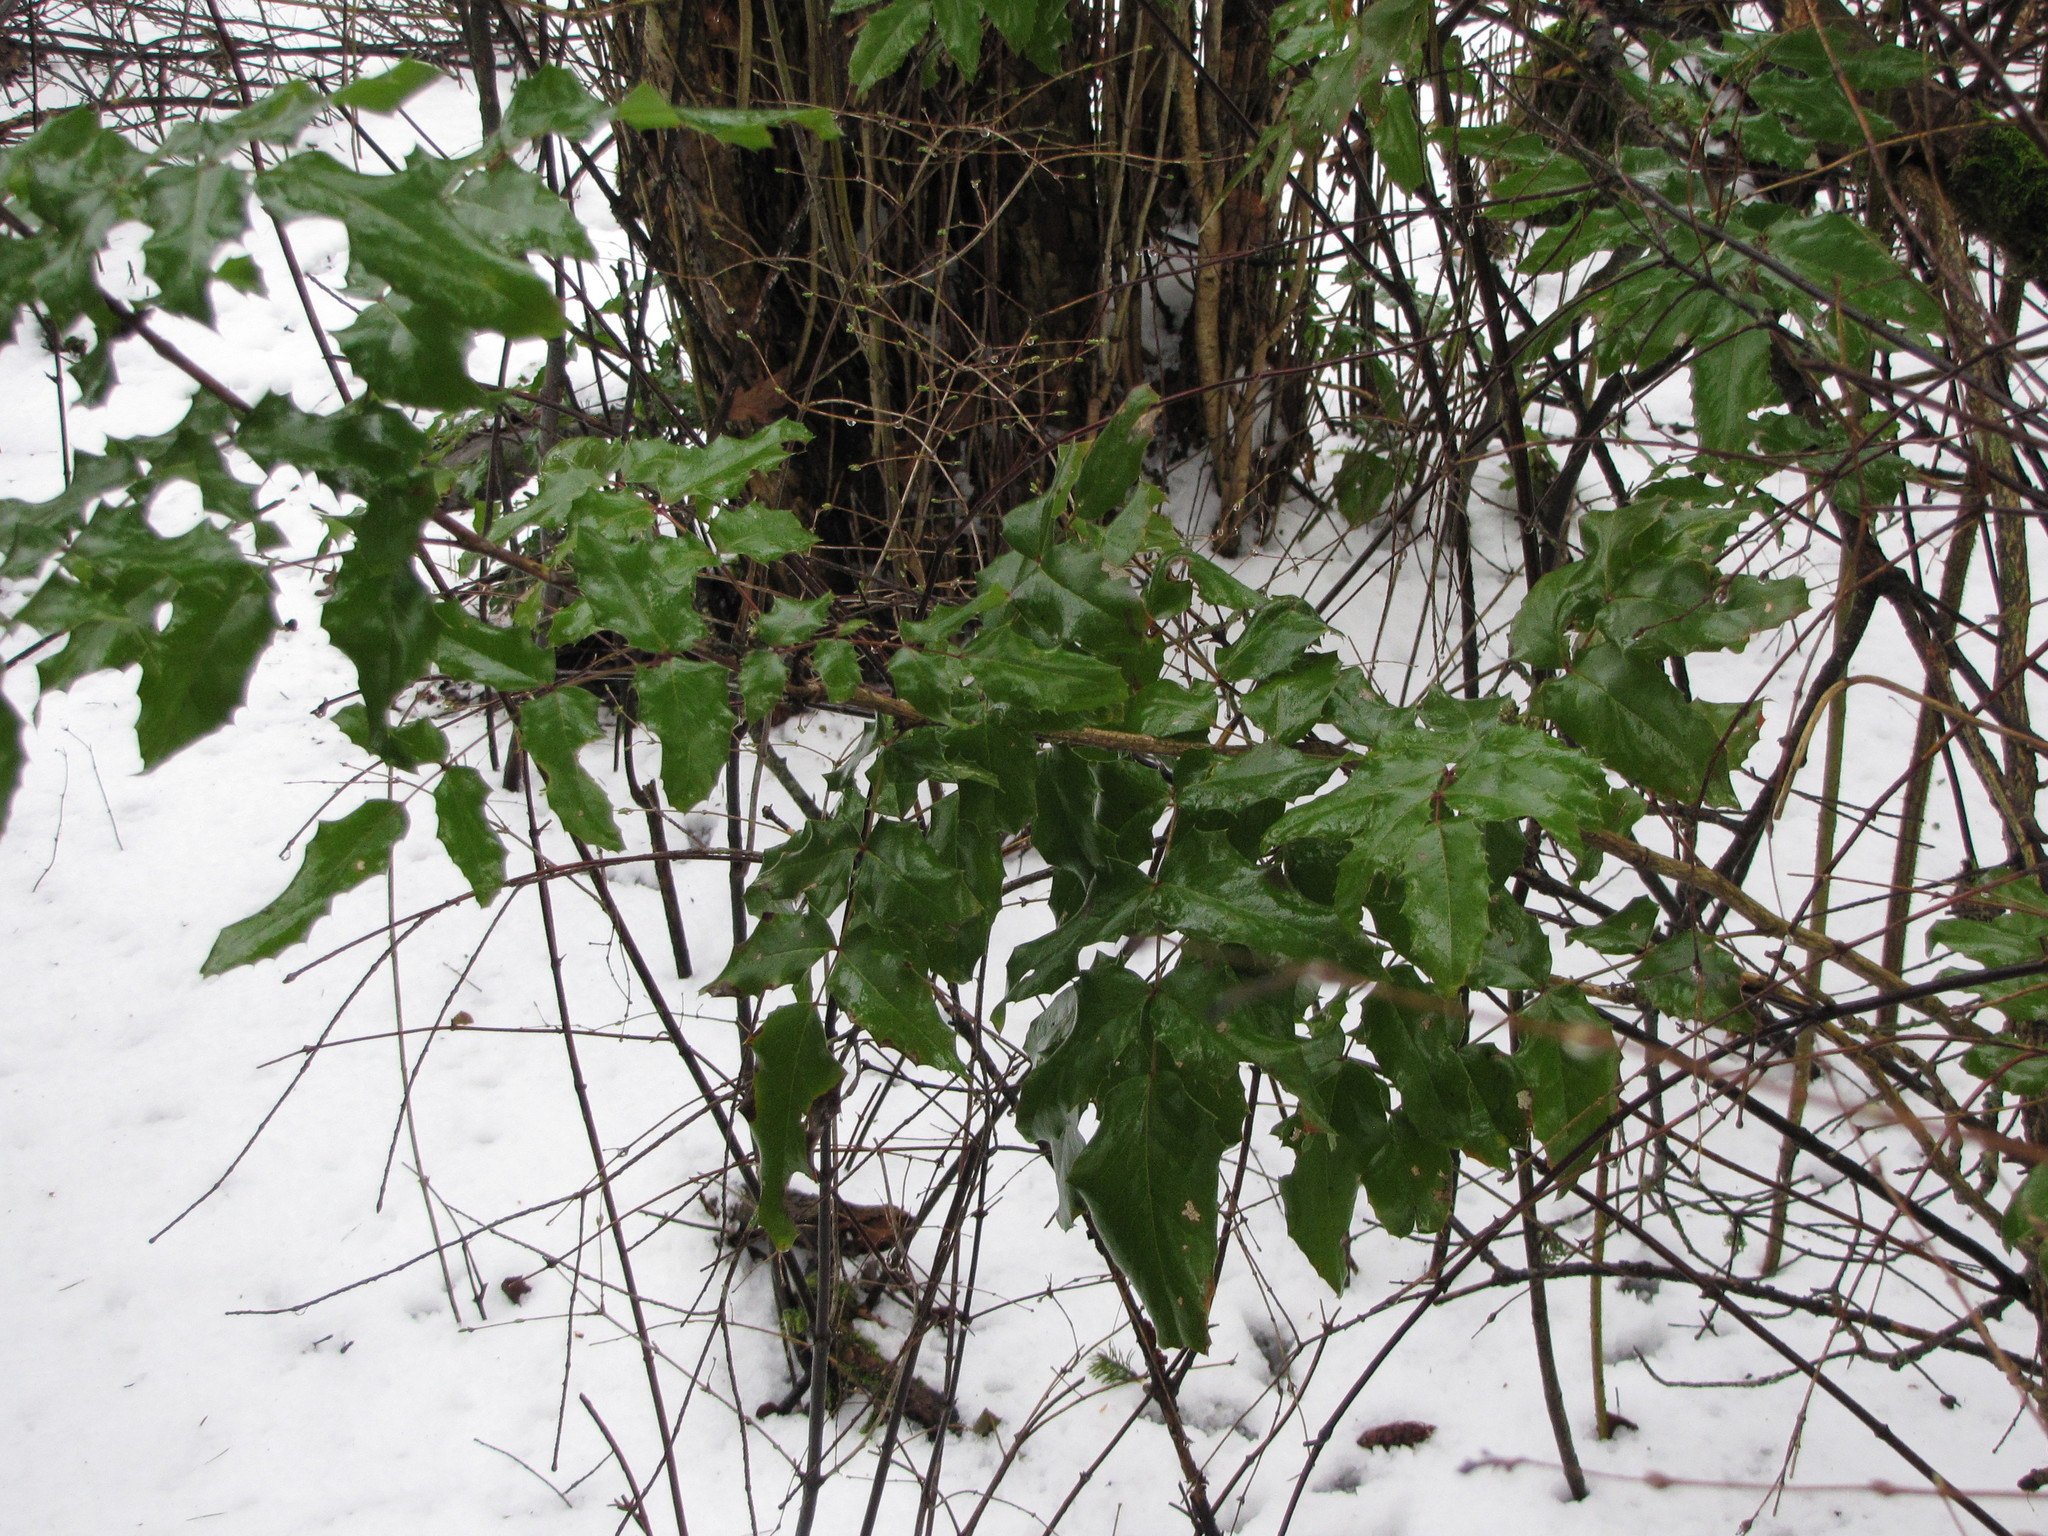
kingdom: Plantae
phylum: Tracheophyta
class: Magnoliopsida
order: Ranunculales
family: Berberidaceae
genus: Mahonia
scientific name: Mahonia aquifolium
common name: Oregon-grape
